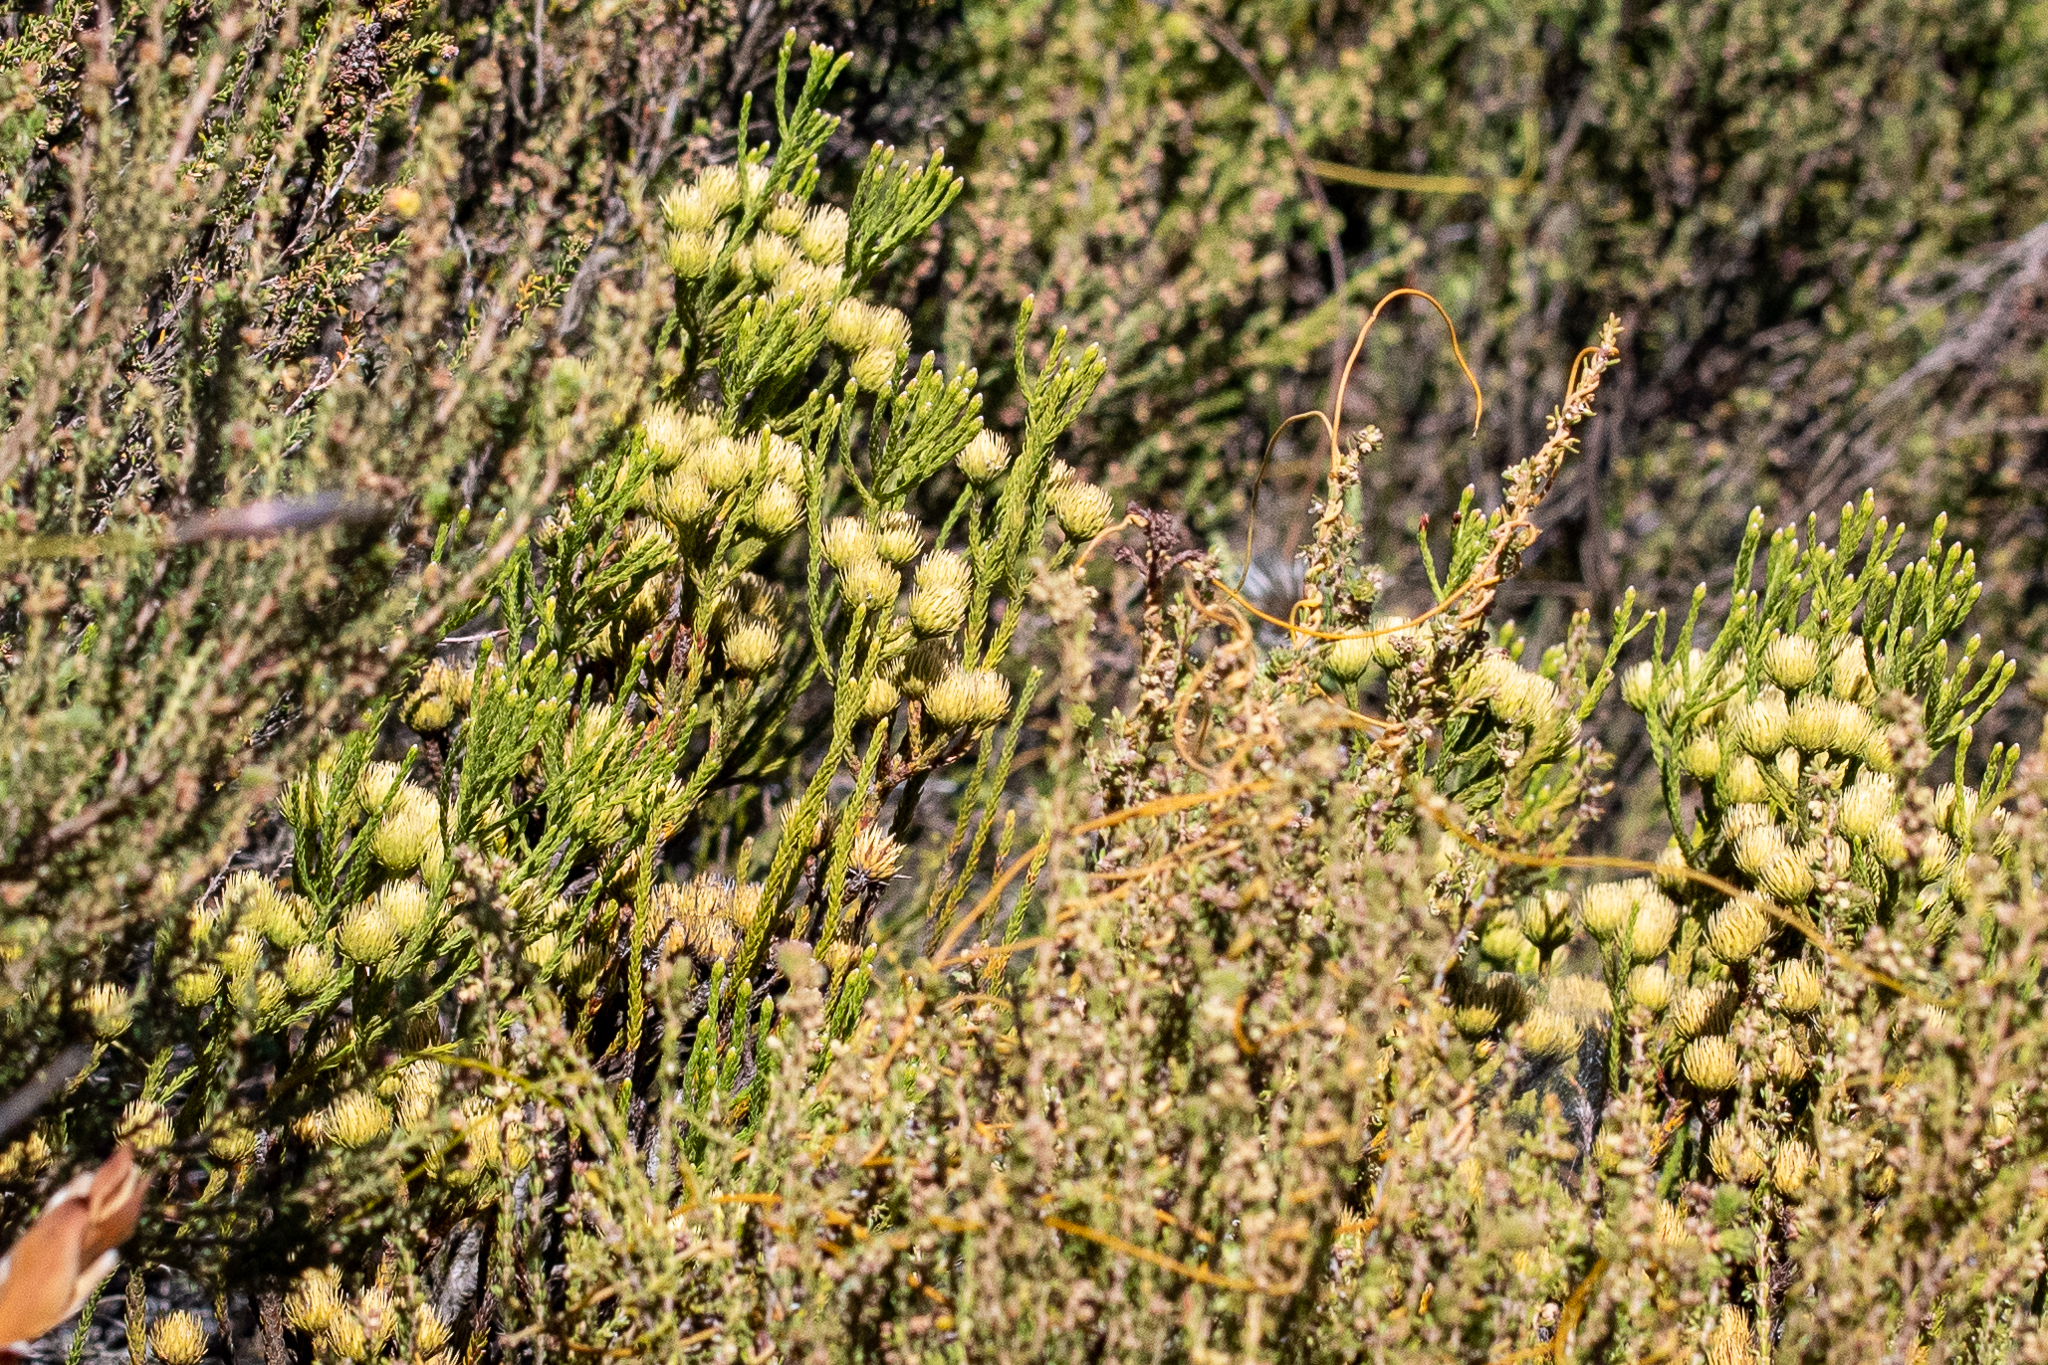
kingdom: Plantae
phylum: Tracheophyta
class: Magnoliopsida
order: Bruniales
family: Bruniaceae
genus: Brunia
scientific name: Brunia paleacea
